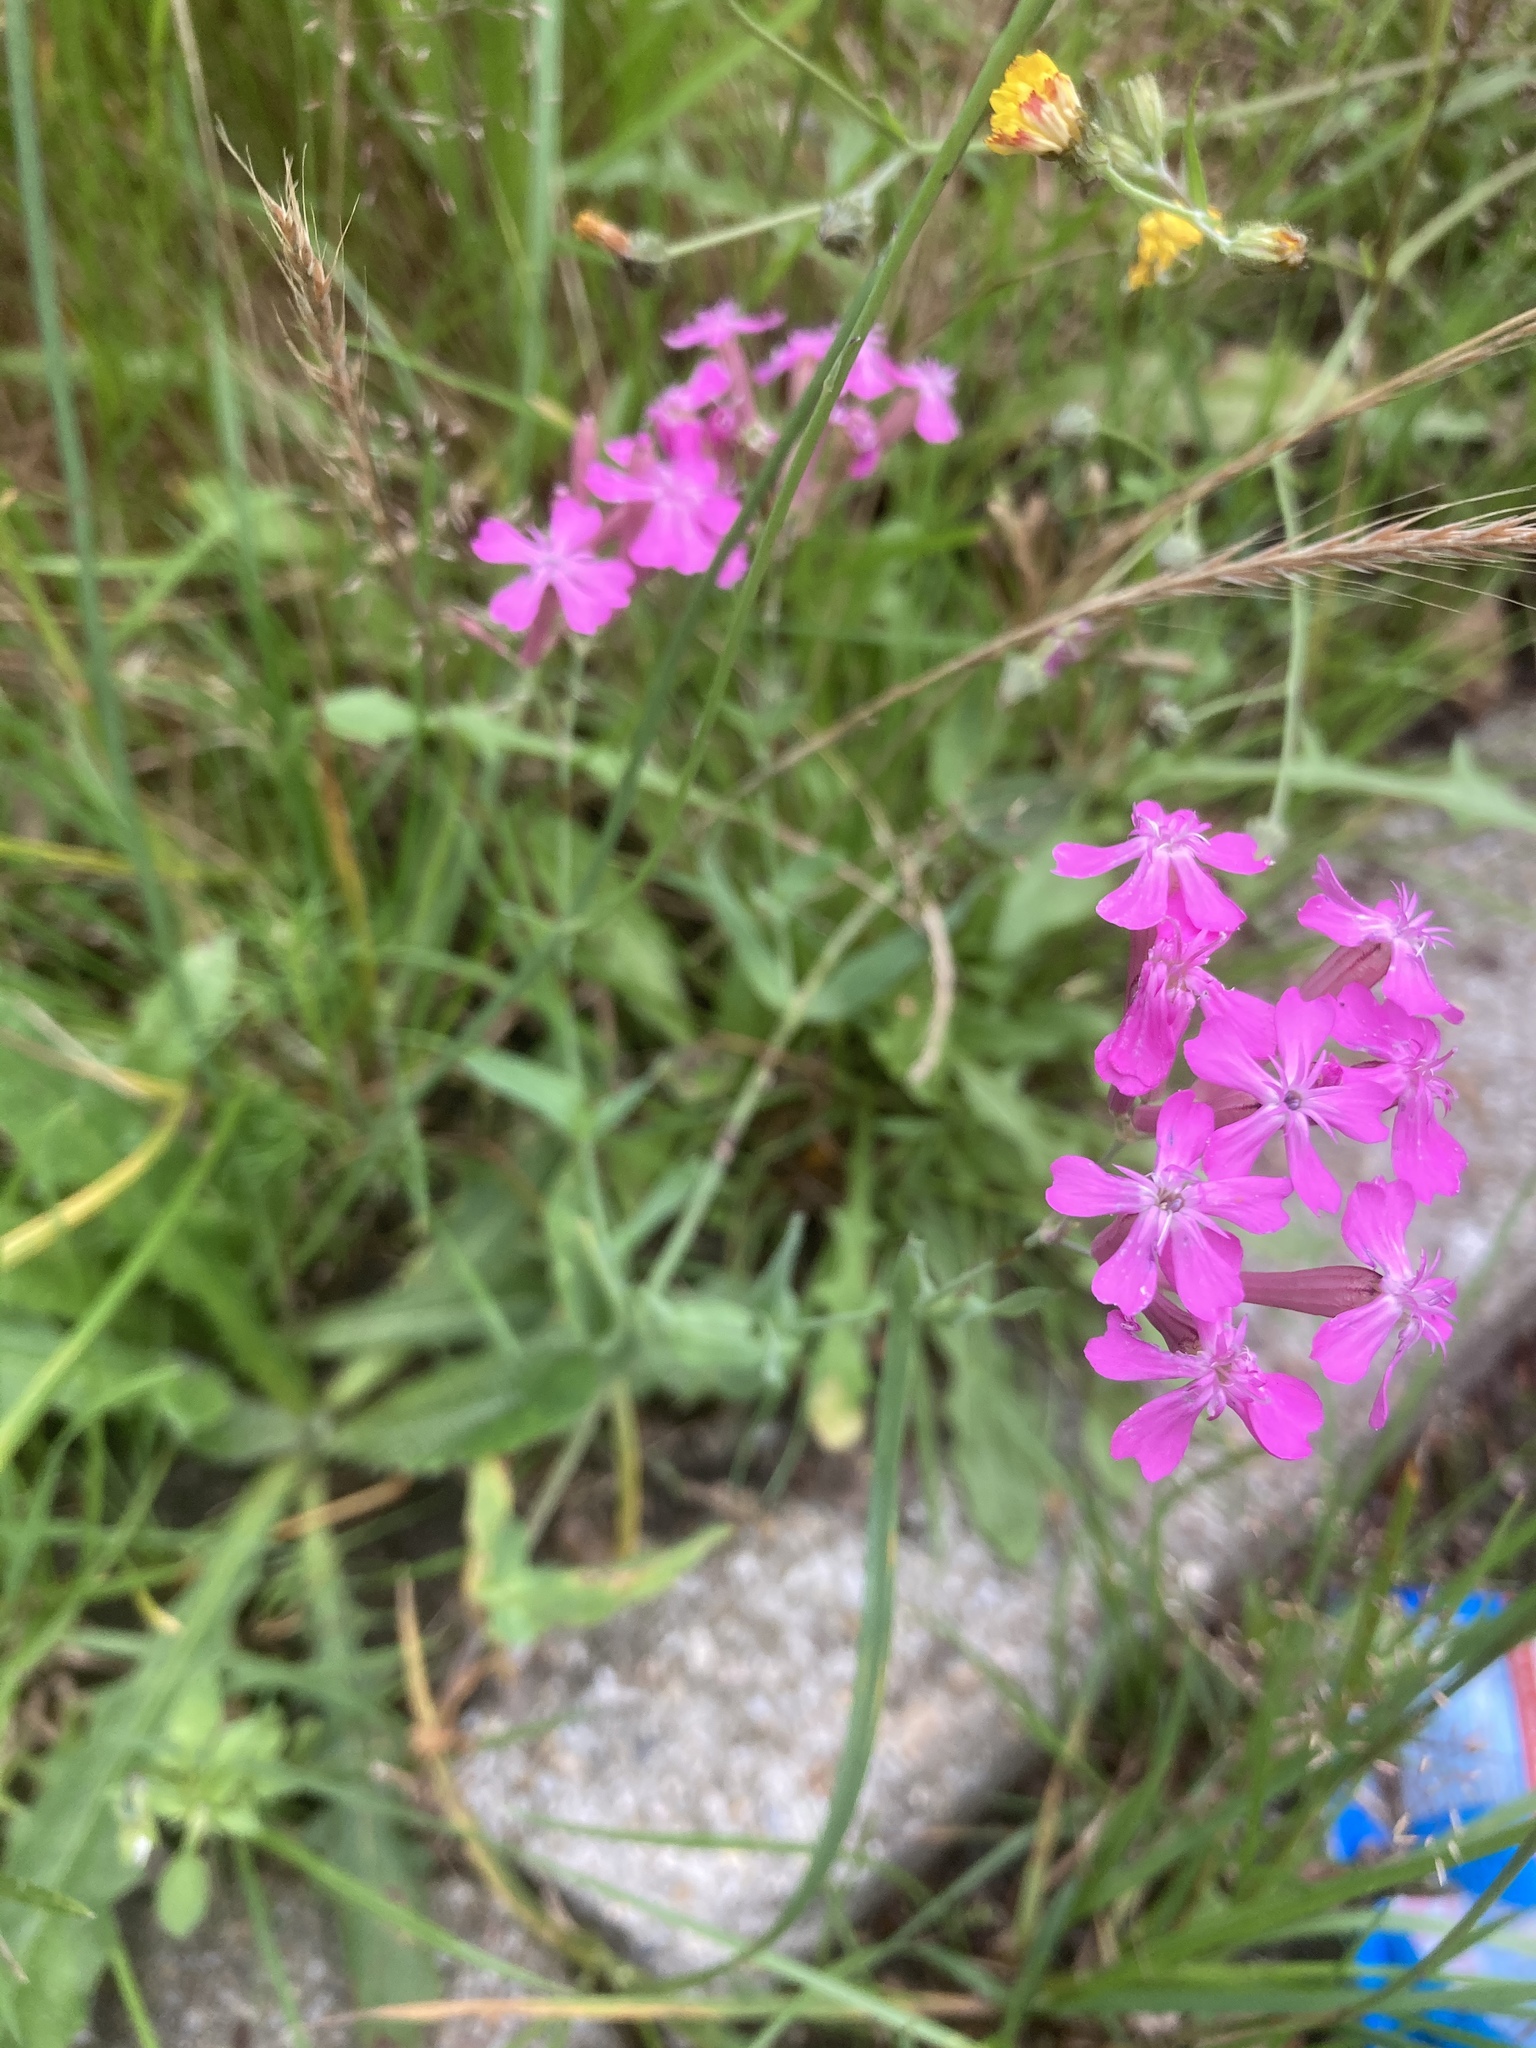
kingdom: Plantae
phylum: Tracheophyta
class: Magnoliopsida
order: Caryophyllales
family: Caryophyllaceae
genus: Atocion
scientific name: Atocion armeria
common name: Sweet william catchfly
